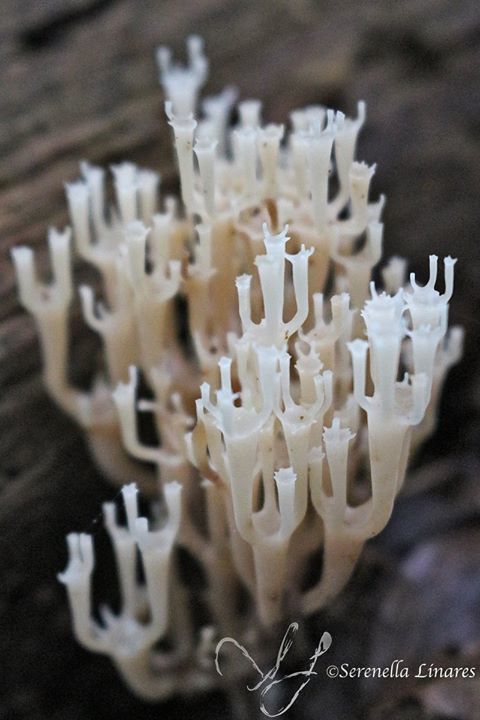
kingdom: Fungi
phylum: Basidiomycota
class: Agaricomycetes
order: Russulales
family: Auriscalpiaceae
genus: Artomyces
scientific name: Artomyces pyxidatus
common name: Crown-tipped coral fungus
